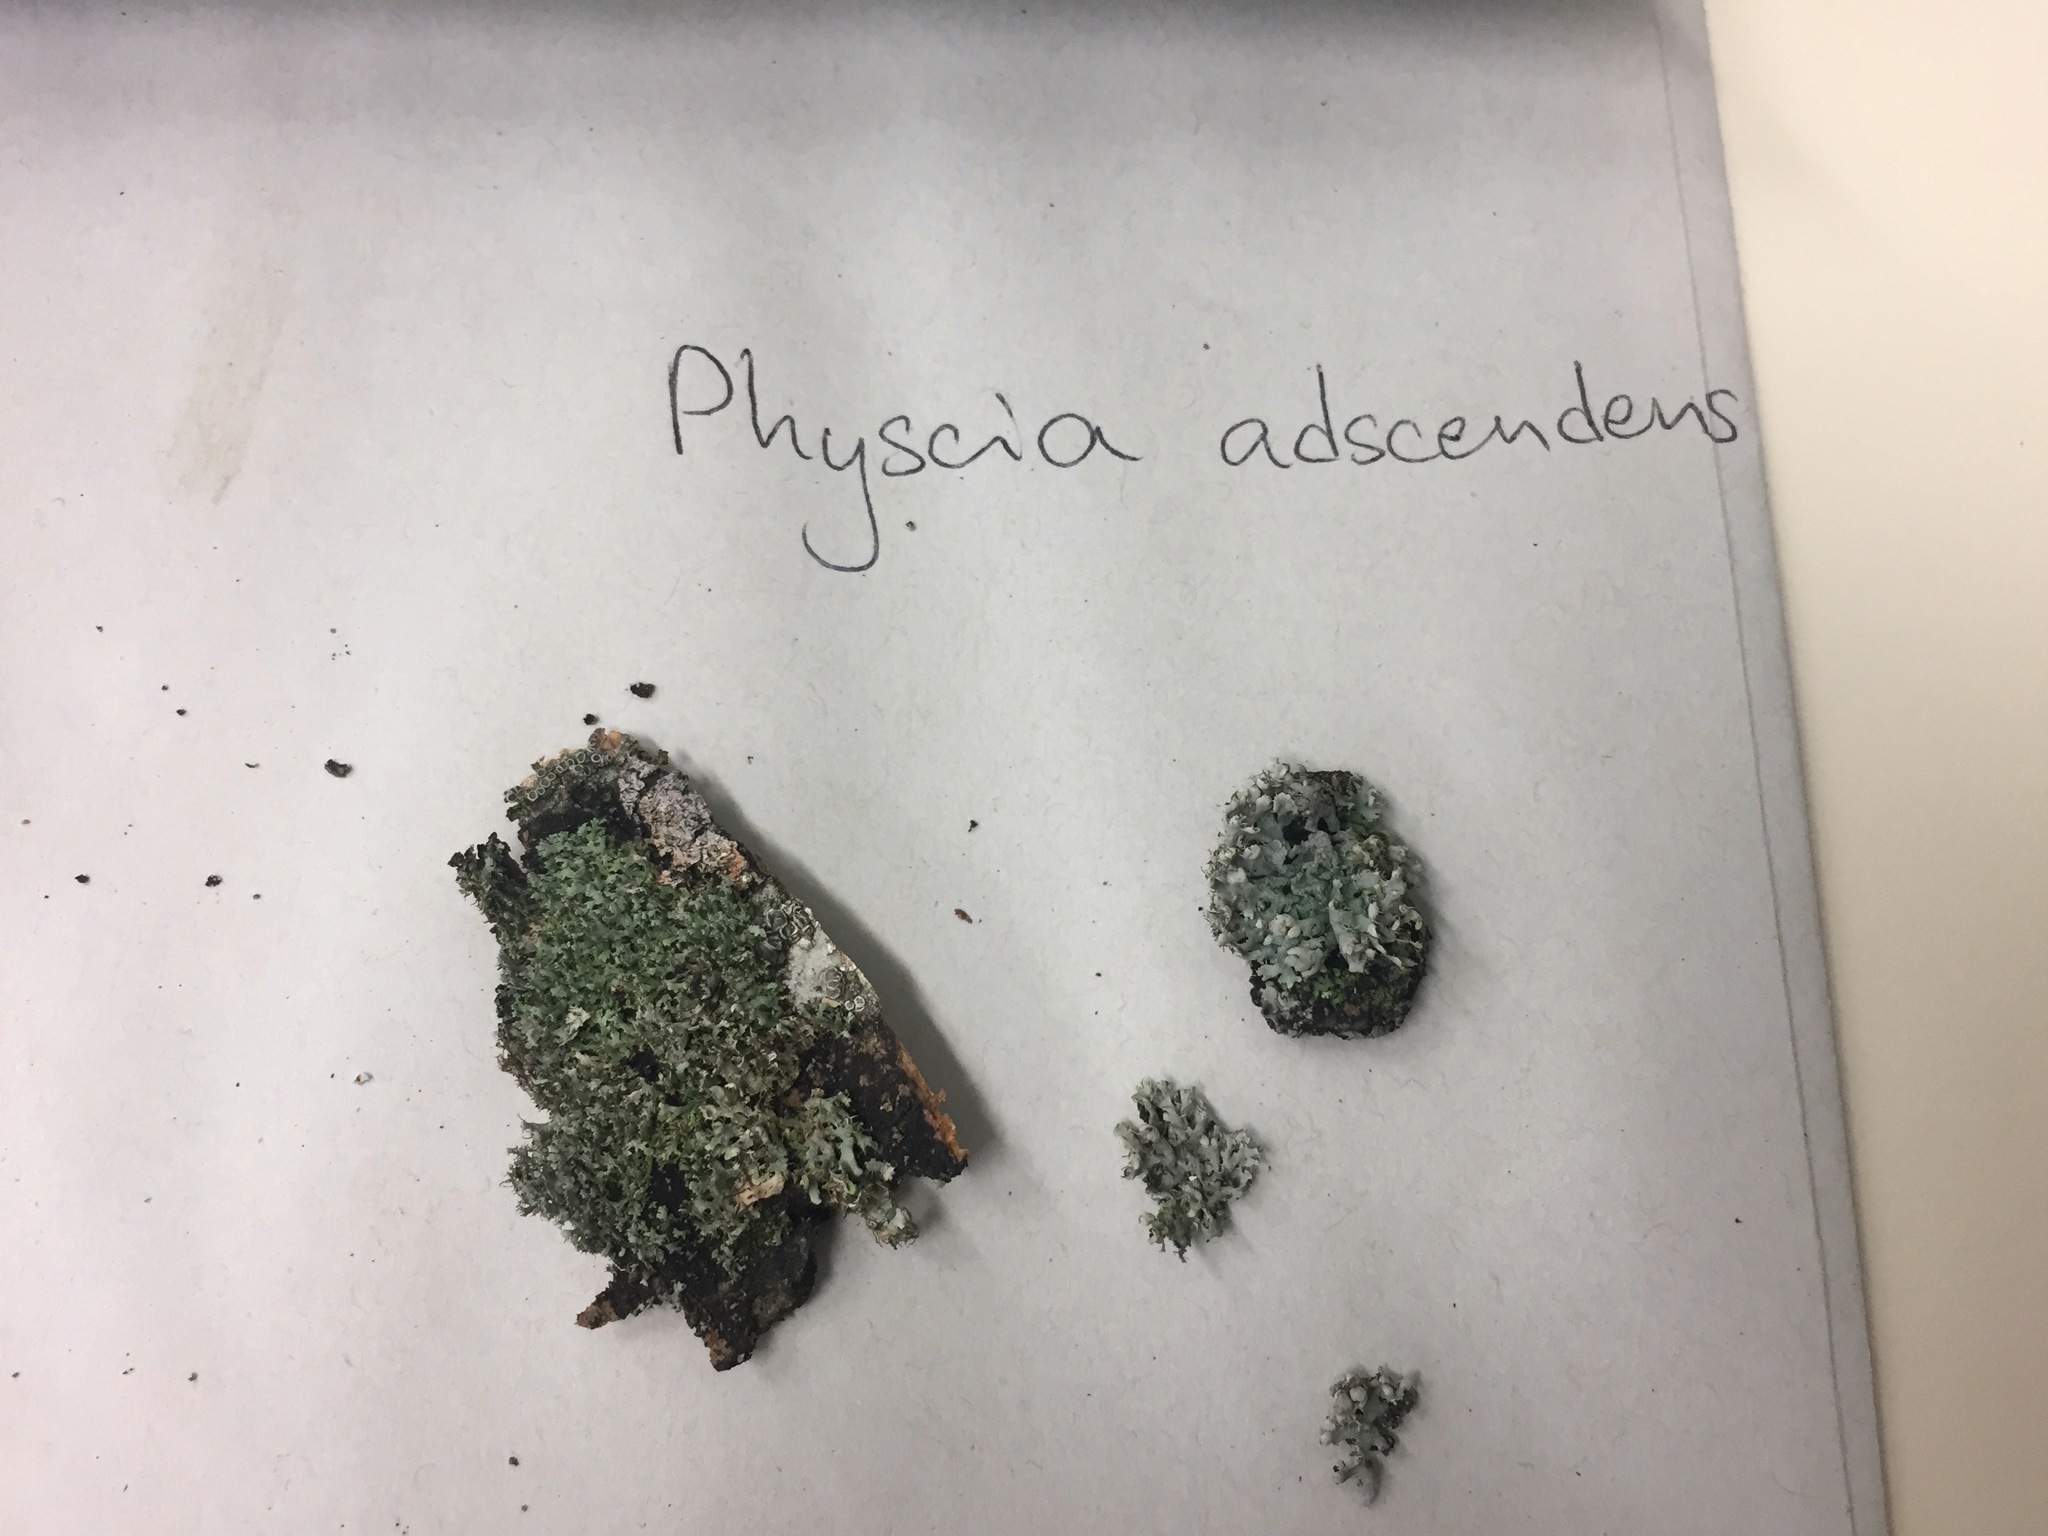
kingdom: Fungi
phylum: Ascomycota
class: Lecanoromycetes
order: Caliciales
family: Physciaceae
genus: Physcia
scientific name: Physcia adscendens
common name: Hooded rosette lichen
